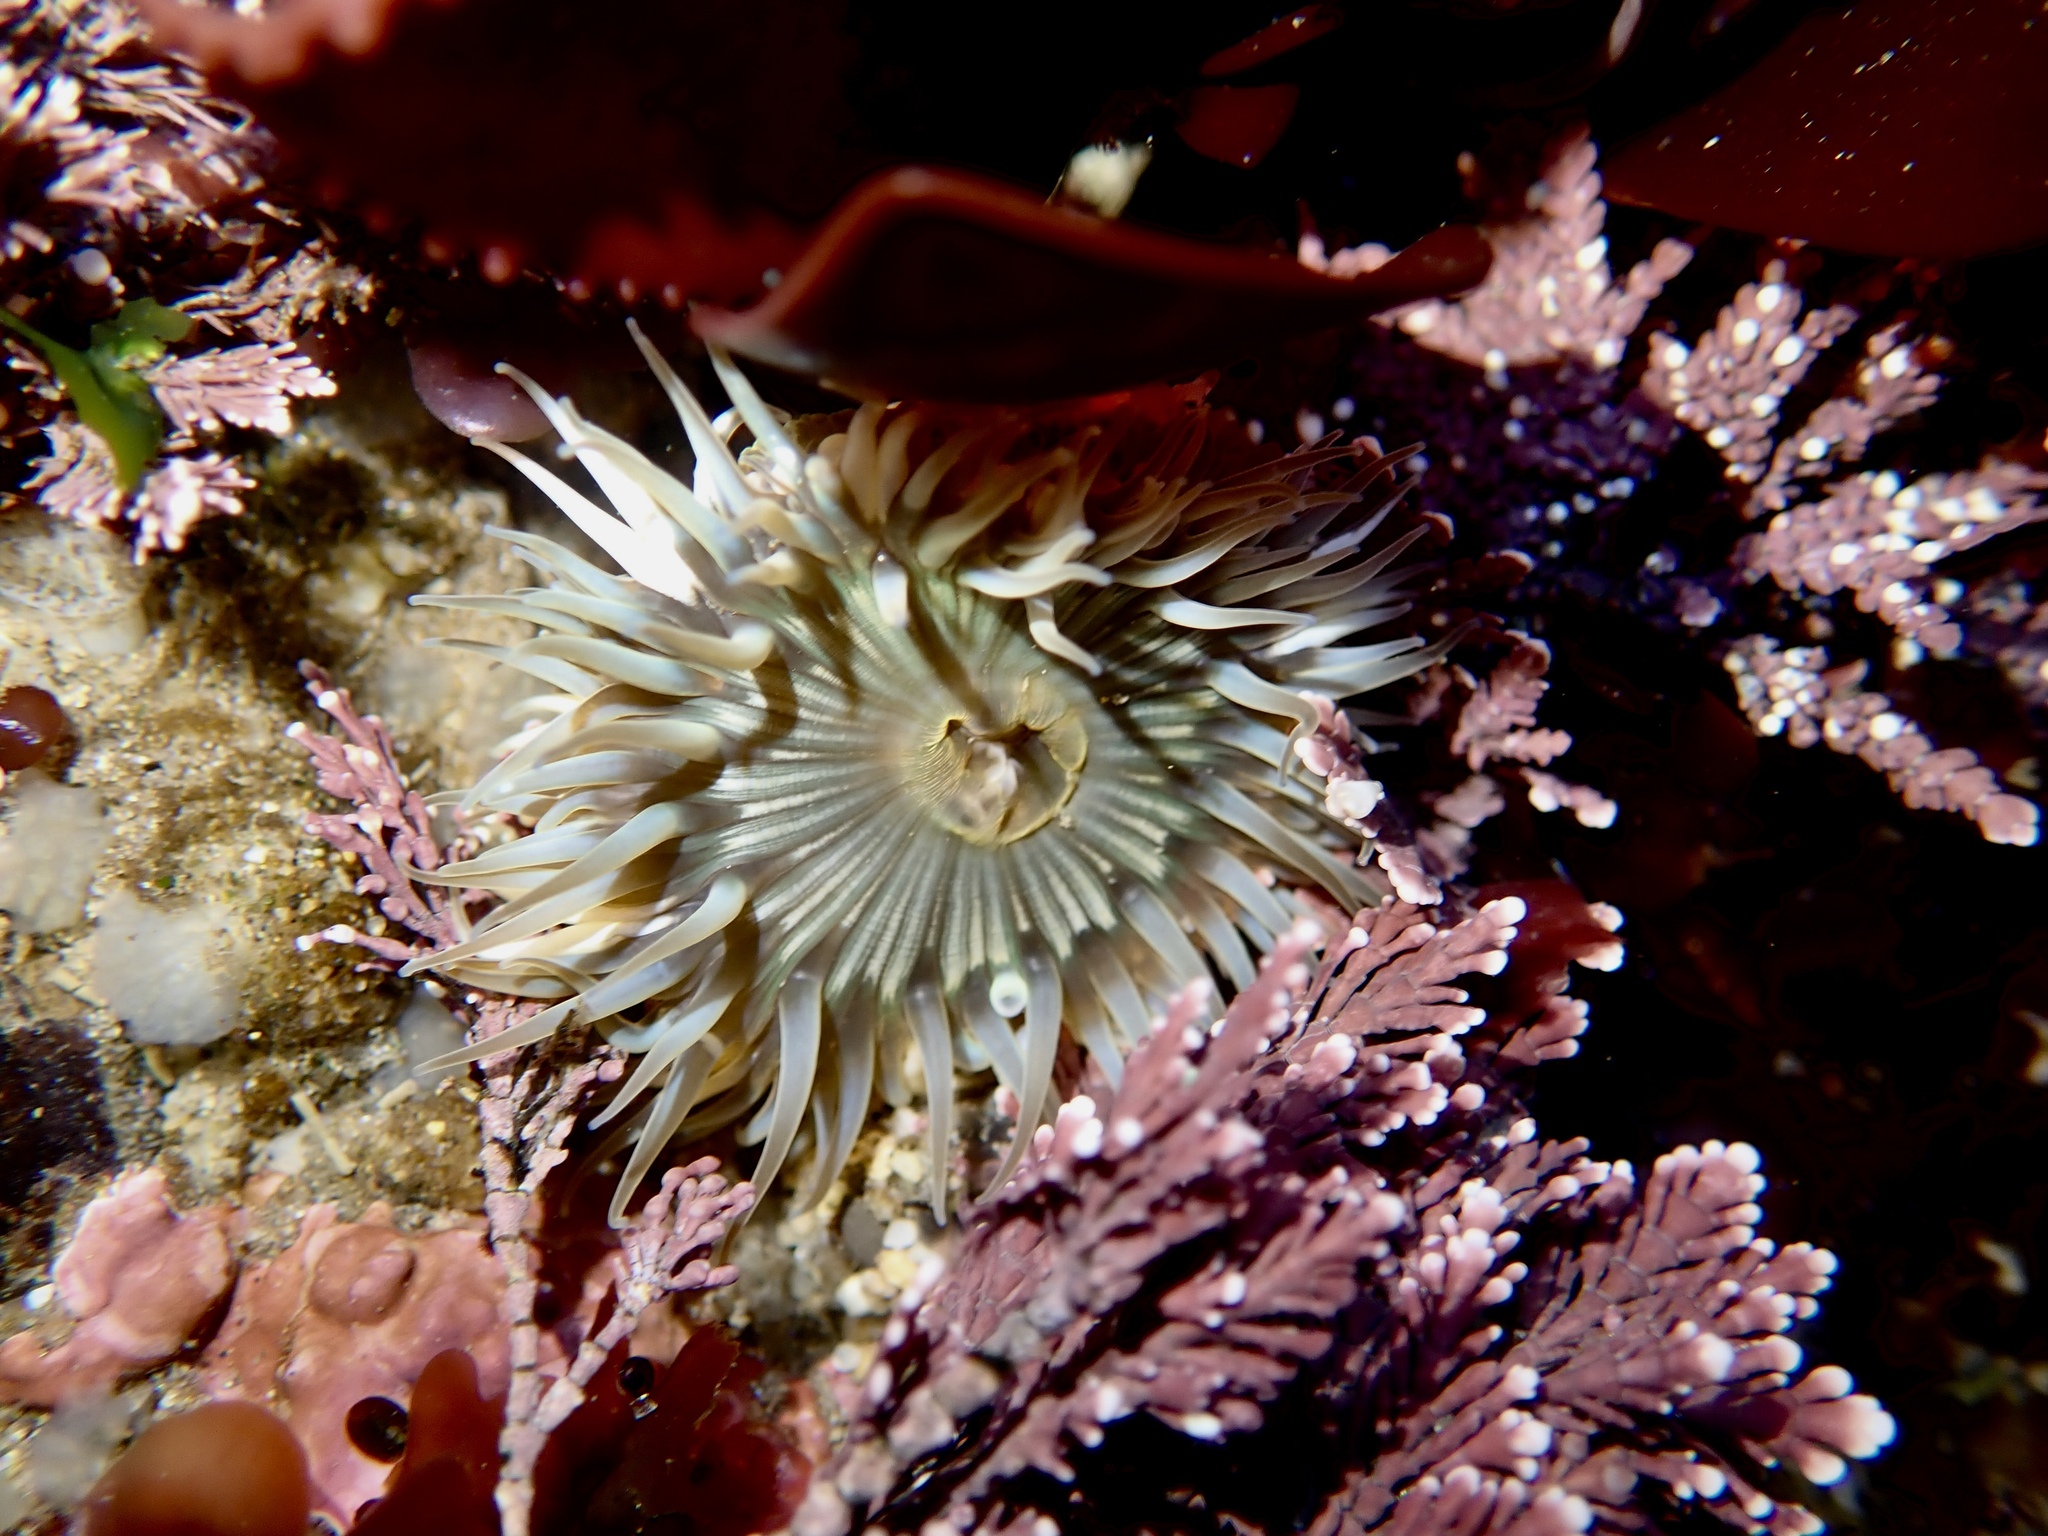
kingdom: Animalia
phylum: Cnidaria
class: Anthozoa
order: Actiniaria
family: Actiniidae
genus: Anthopleura
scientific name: Anthopleura sola
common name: Sun anemone
